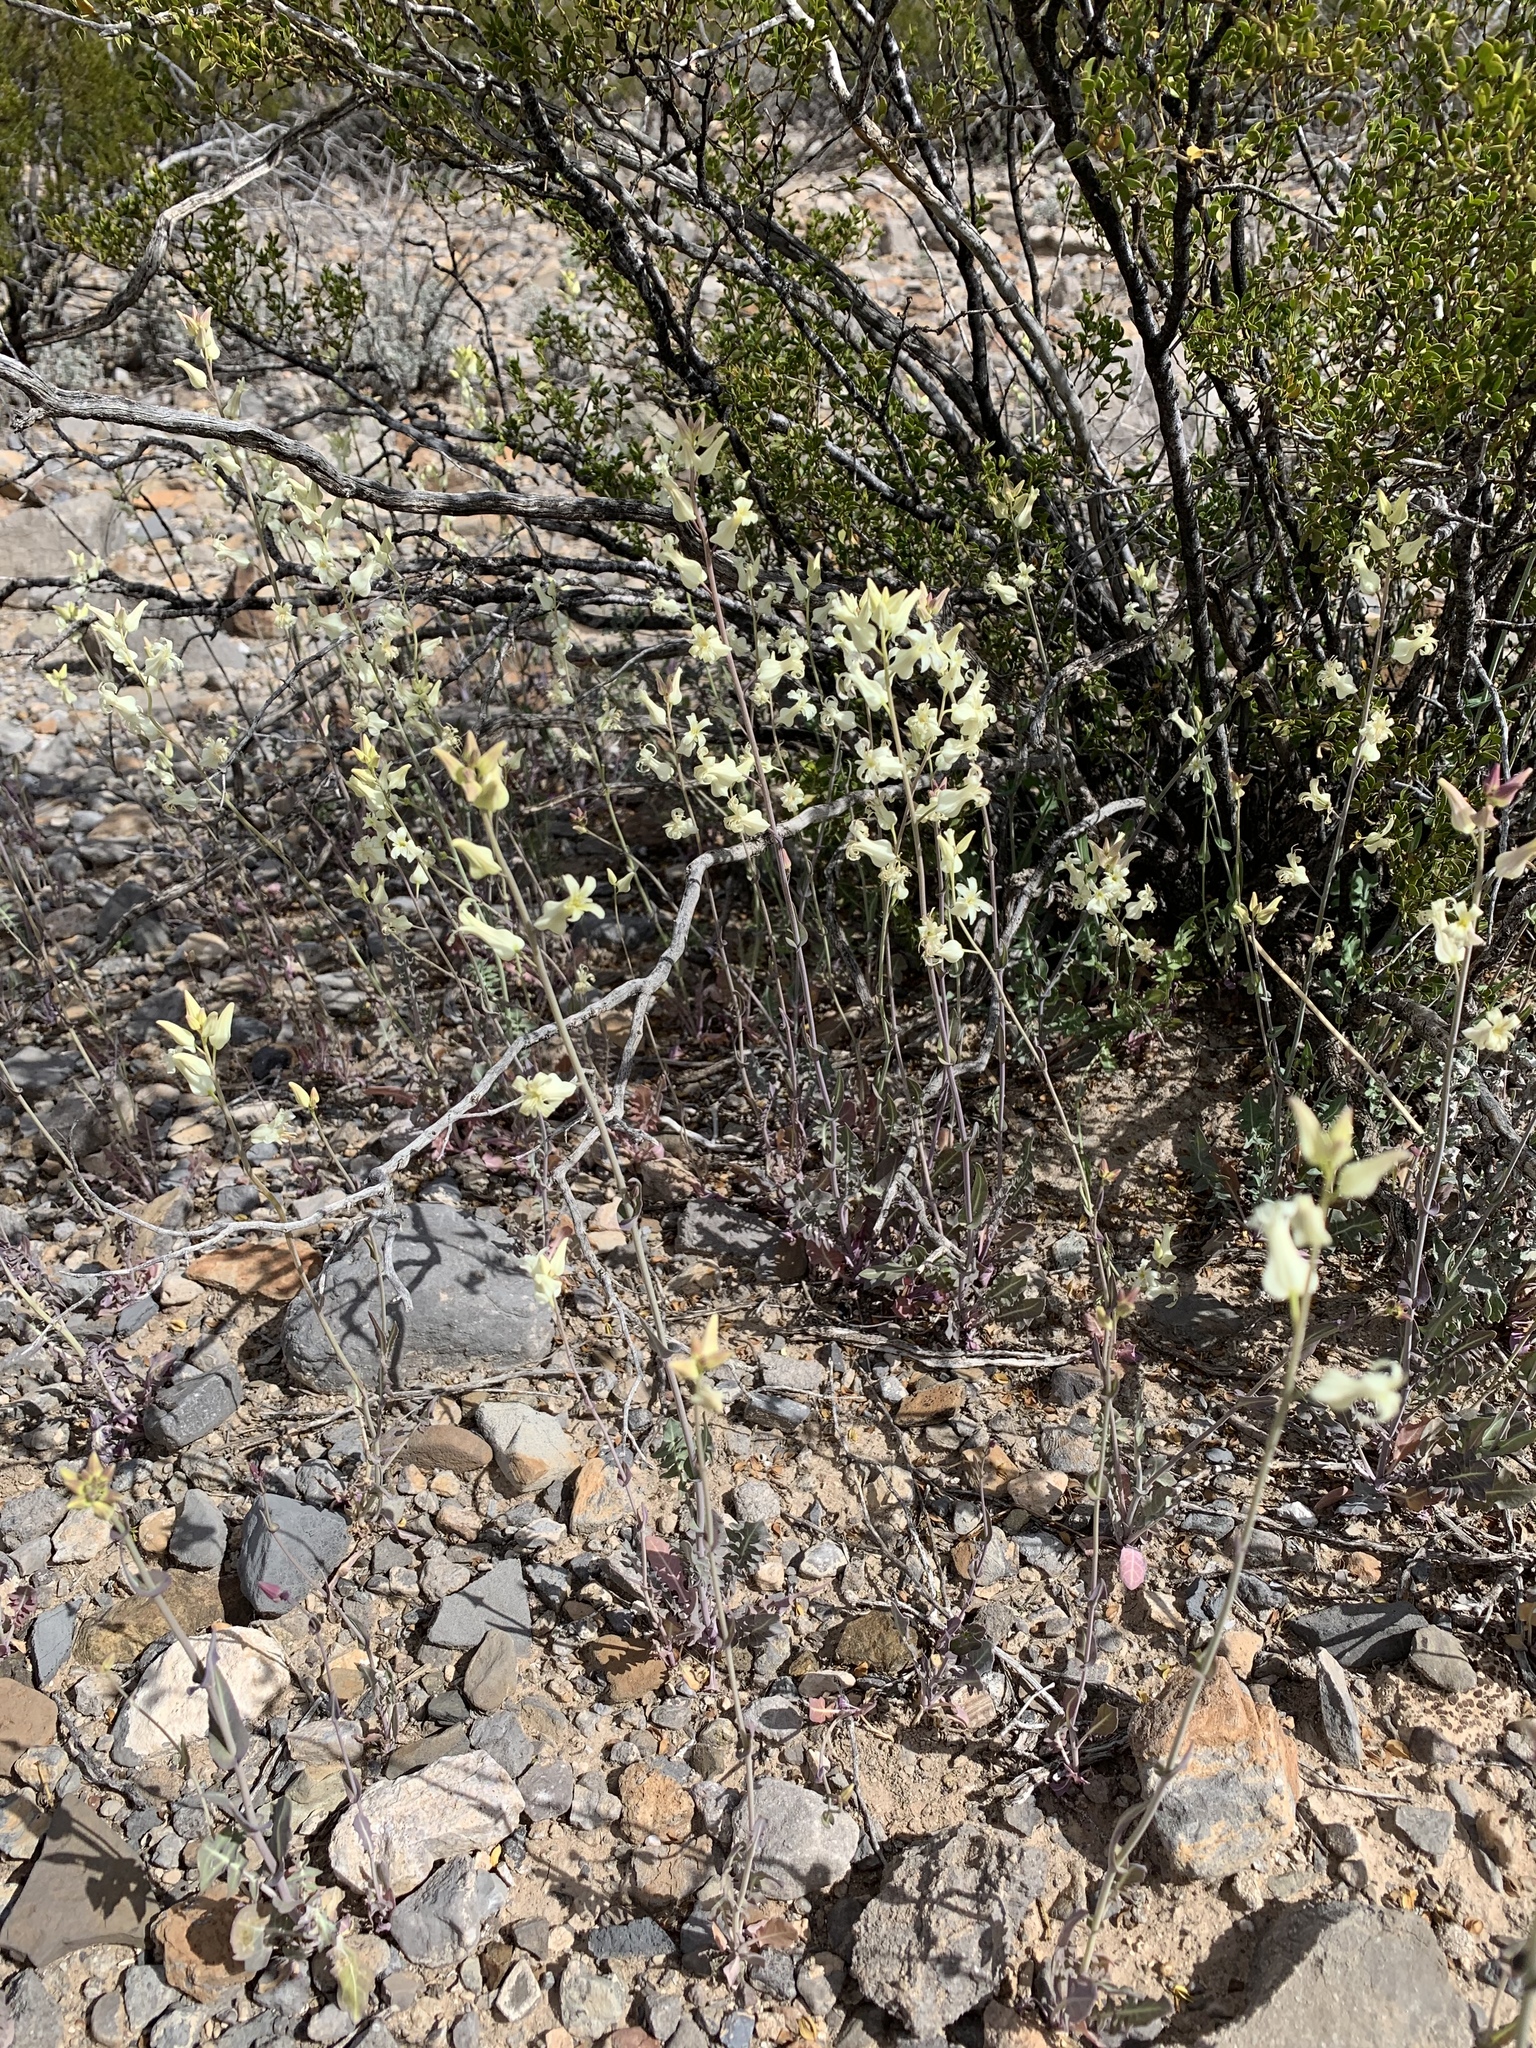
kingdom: Plantae
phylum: Tracheophyta
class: Magnoliopsida
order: Brassicales
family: Brassicaceae
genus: Streptanthus
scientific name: Streptanthus carinatus
